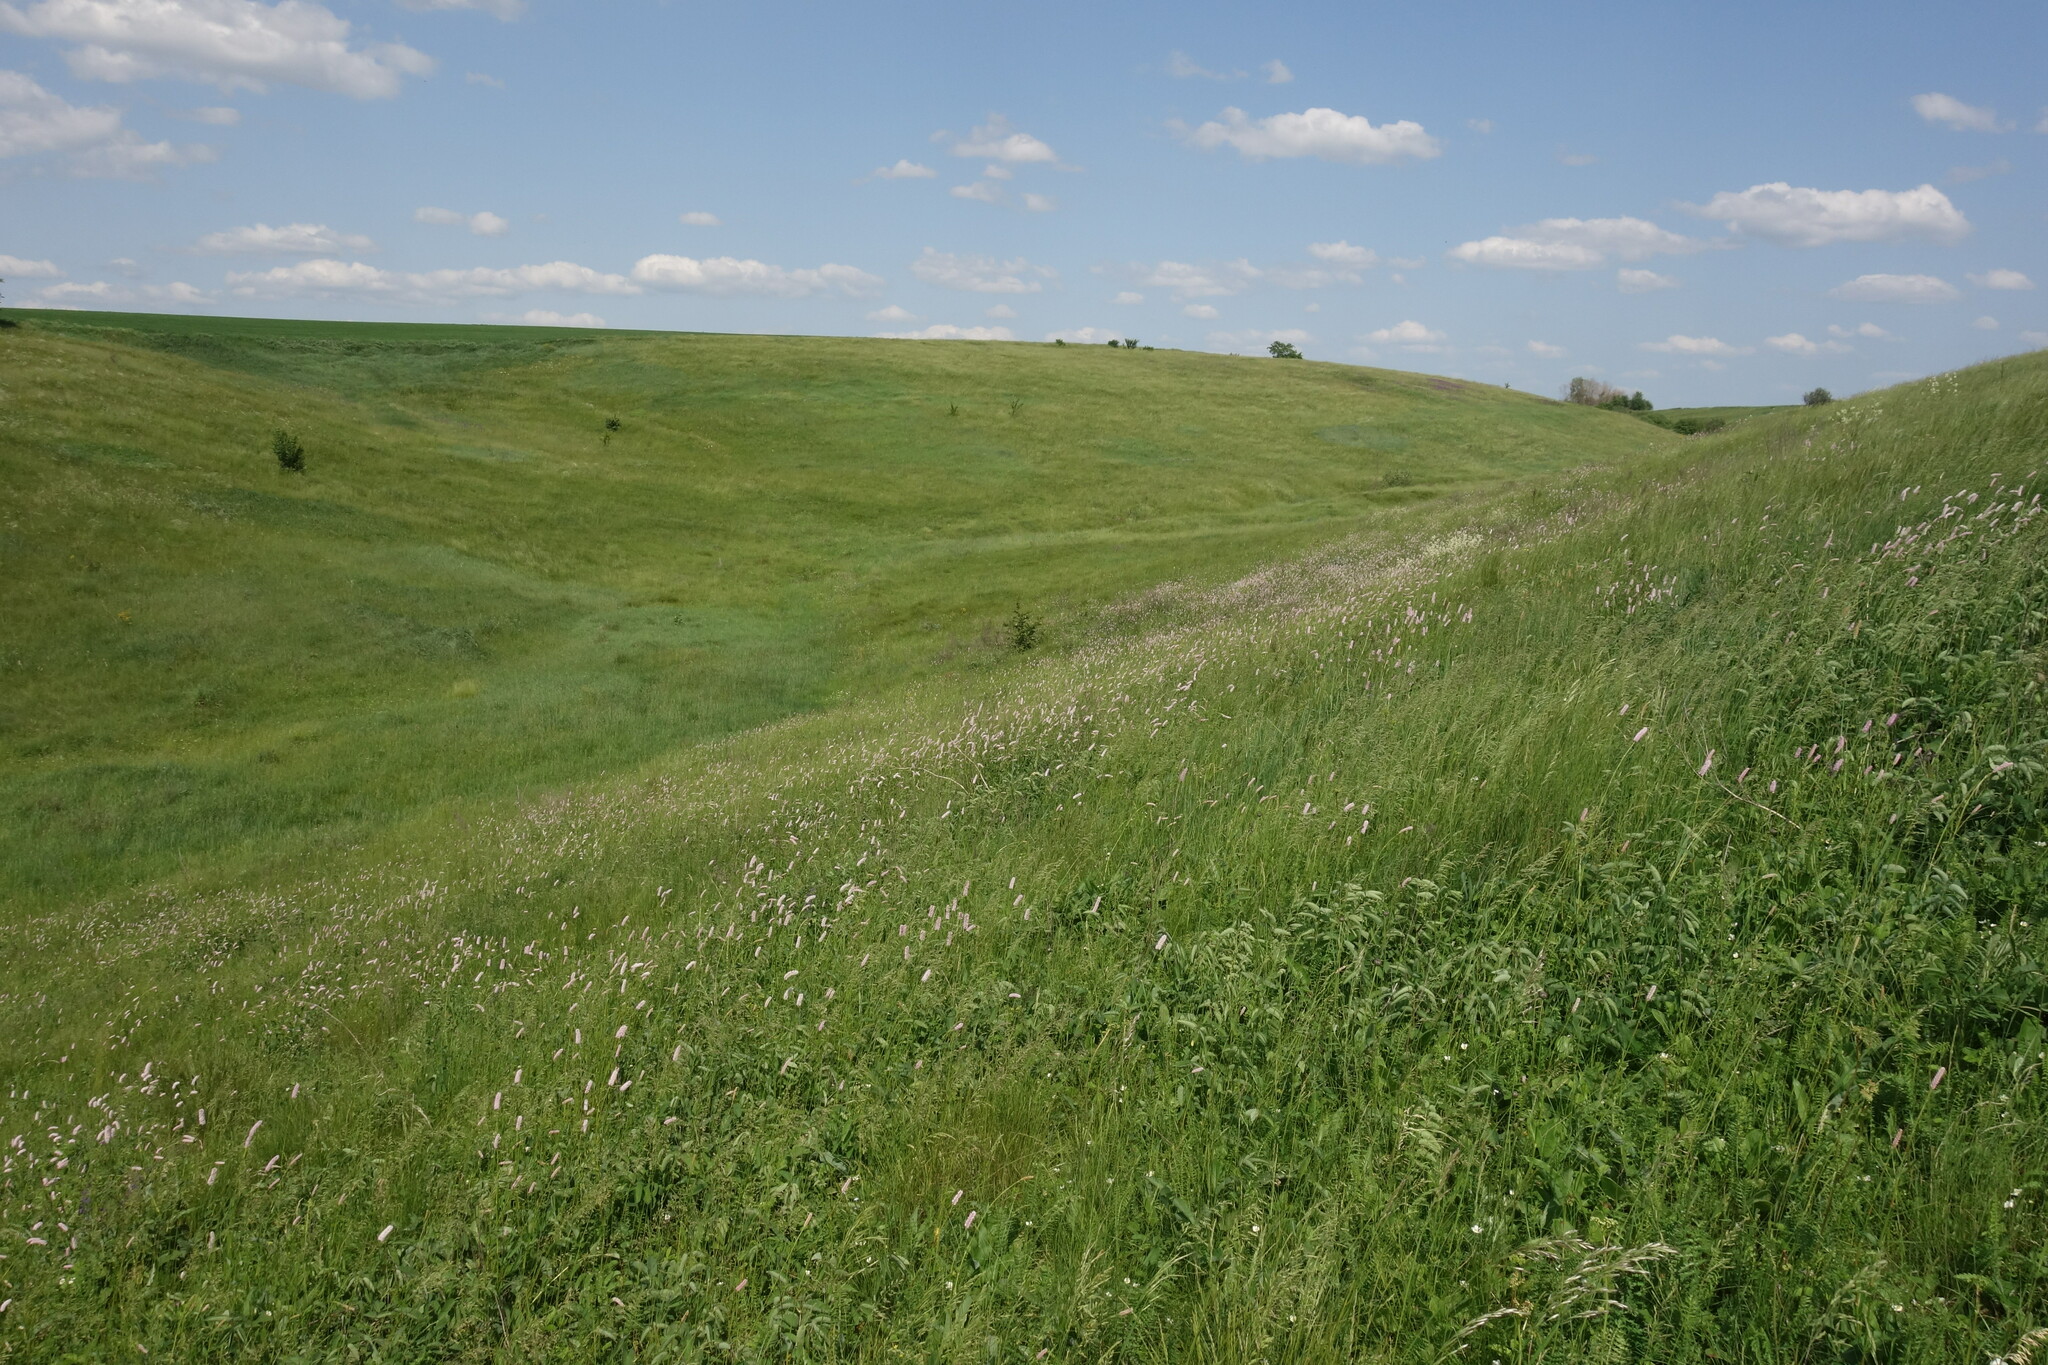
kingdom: Plantae
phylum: Tracheophyta
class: Magnoliopsida
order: Caryophyllales
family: Polygonaceae
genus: Bistorta
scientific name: Bistorta officinalis
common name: Common bistort
